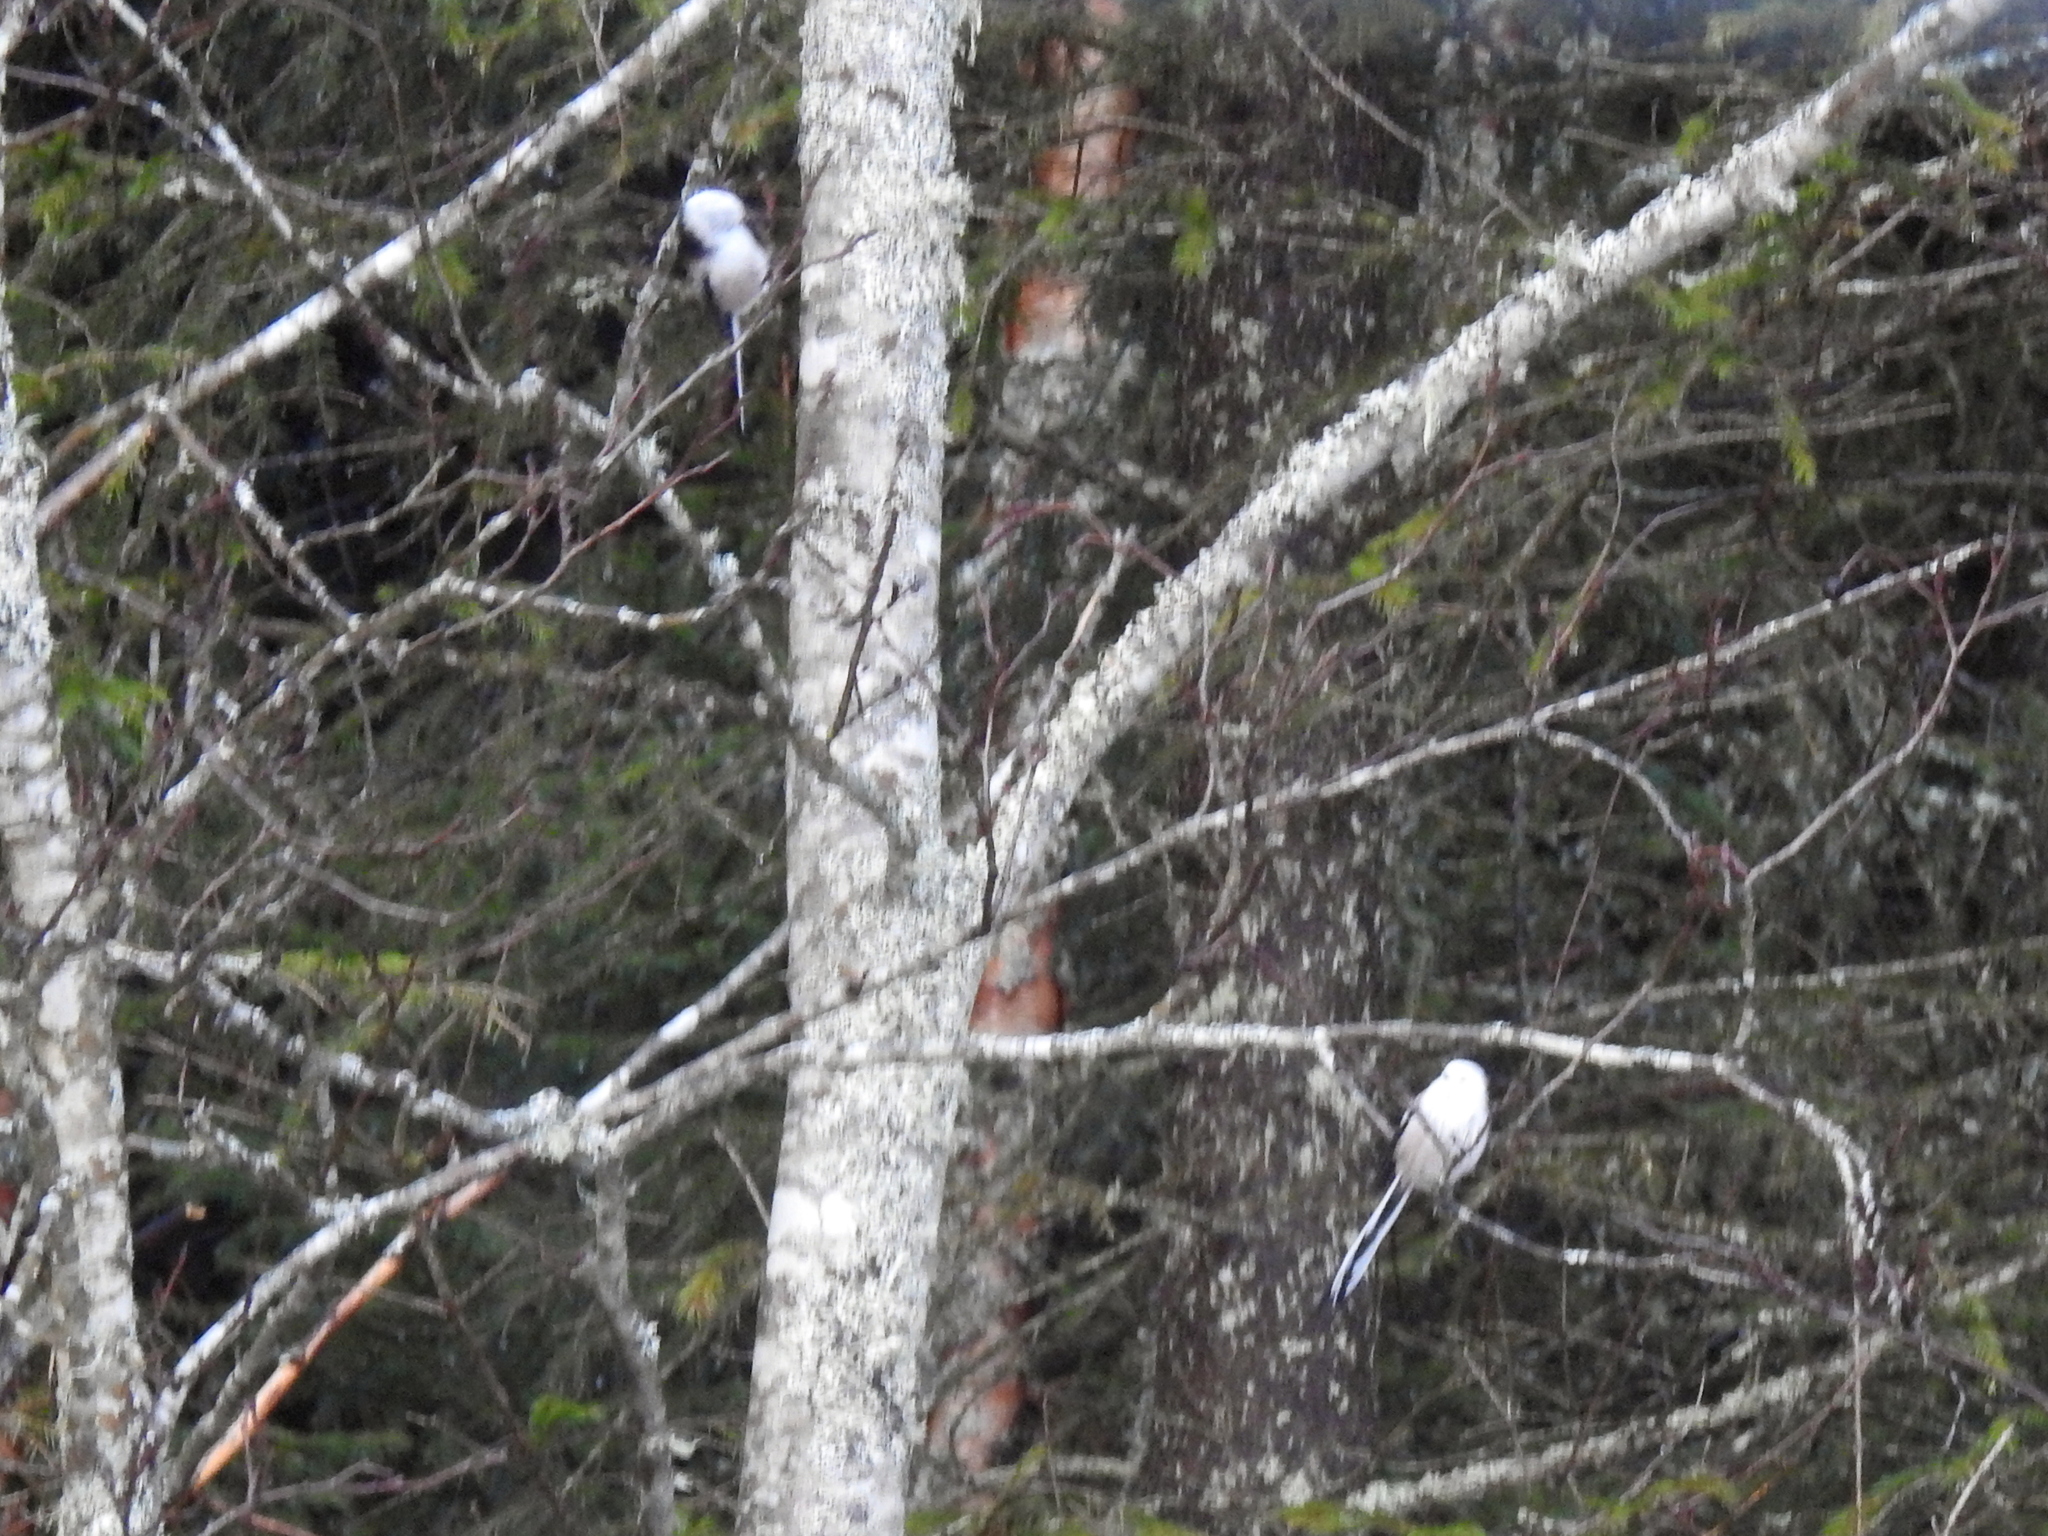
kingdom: Animalia
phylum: Chordata
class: Aves
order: Passeriformes
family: Aegithalidae
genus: Aegithalos
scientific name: Aegithalos caudatus
